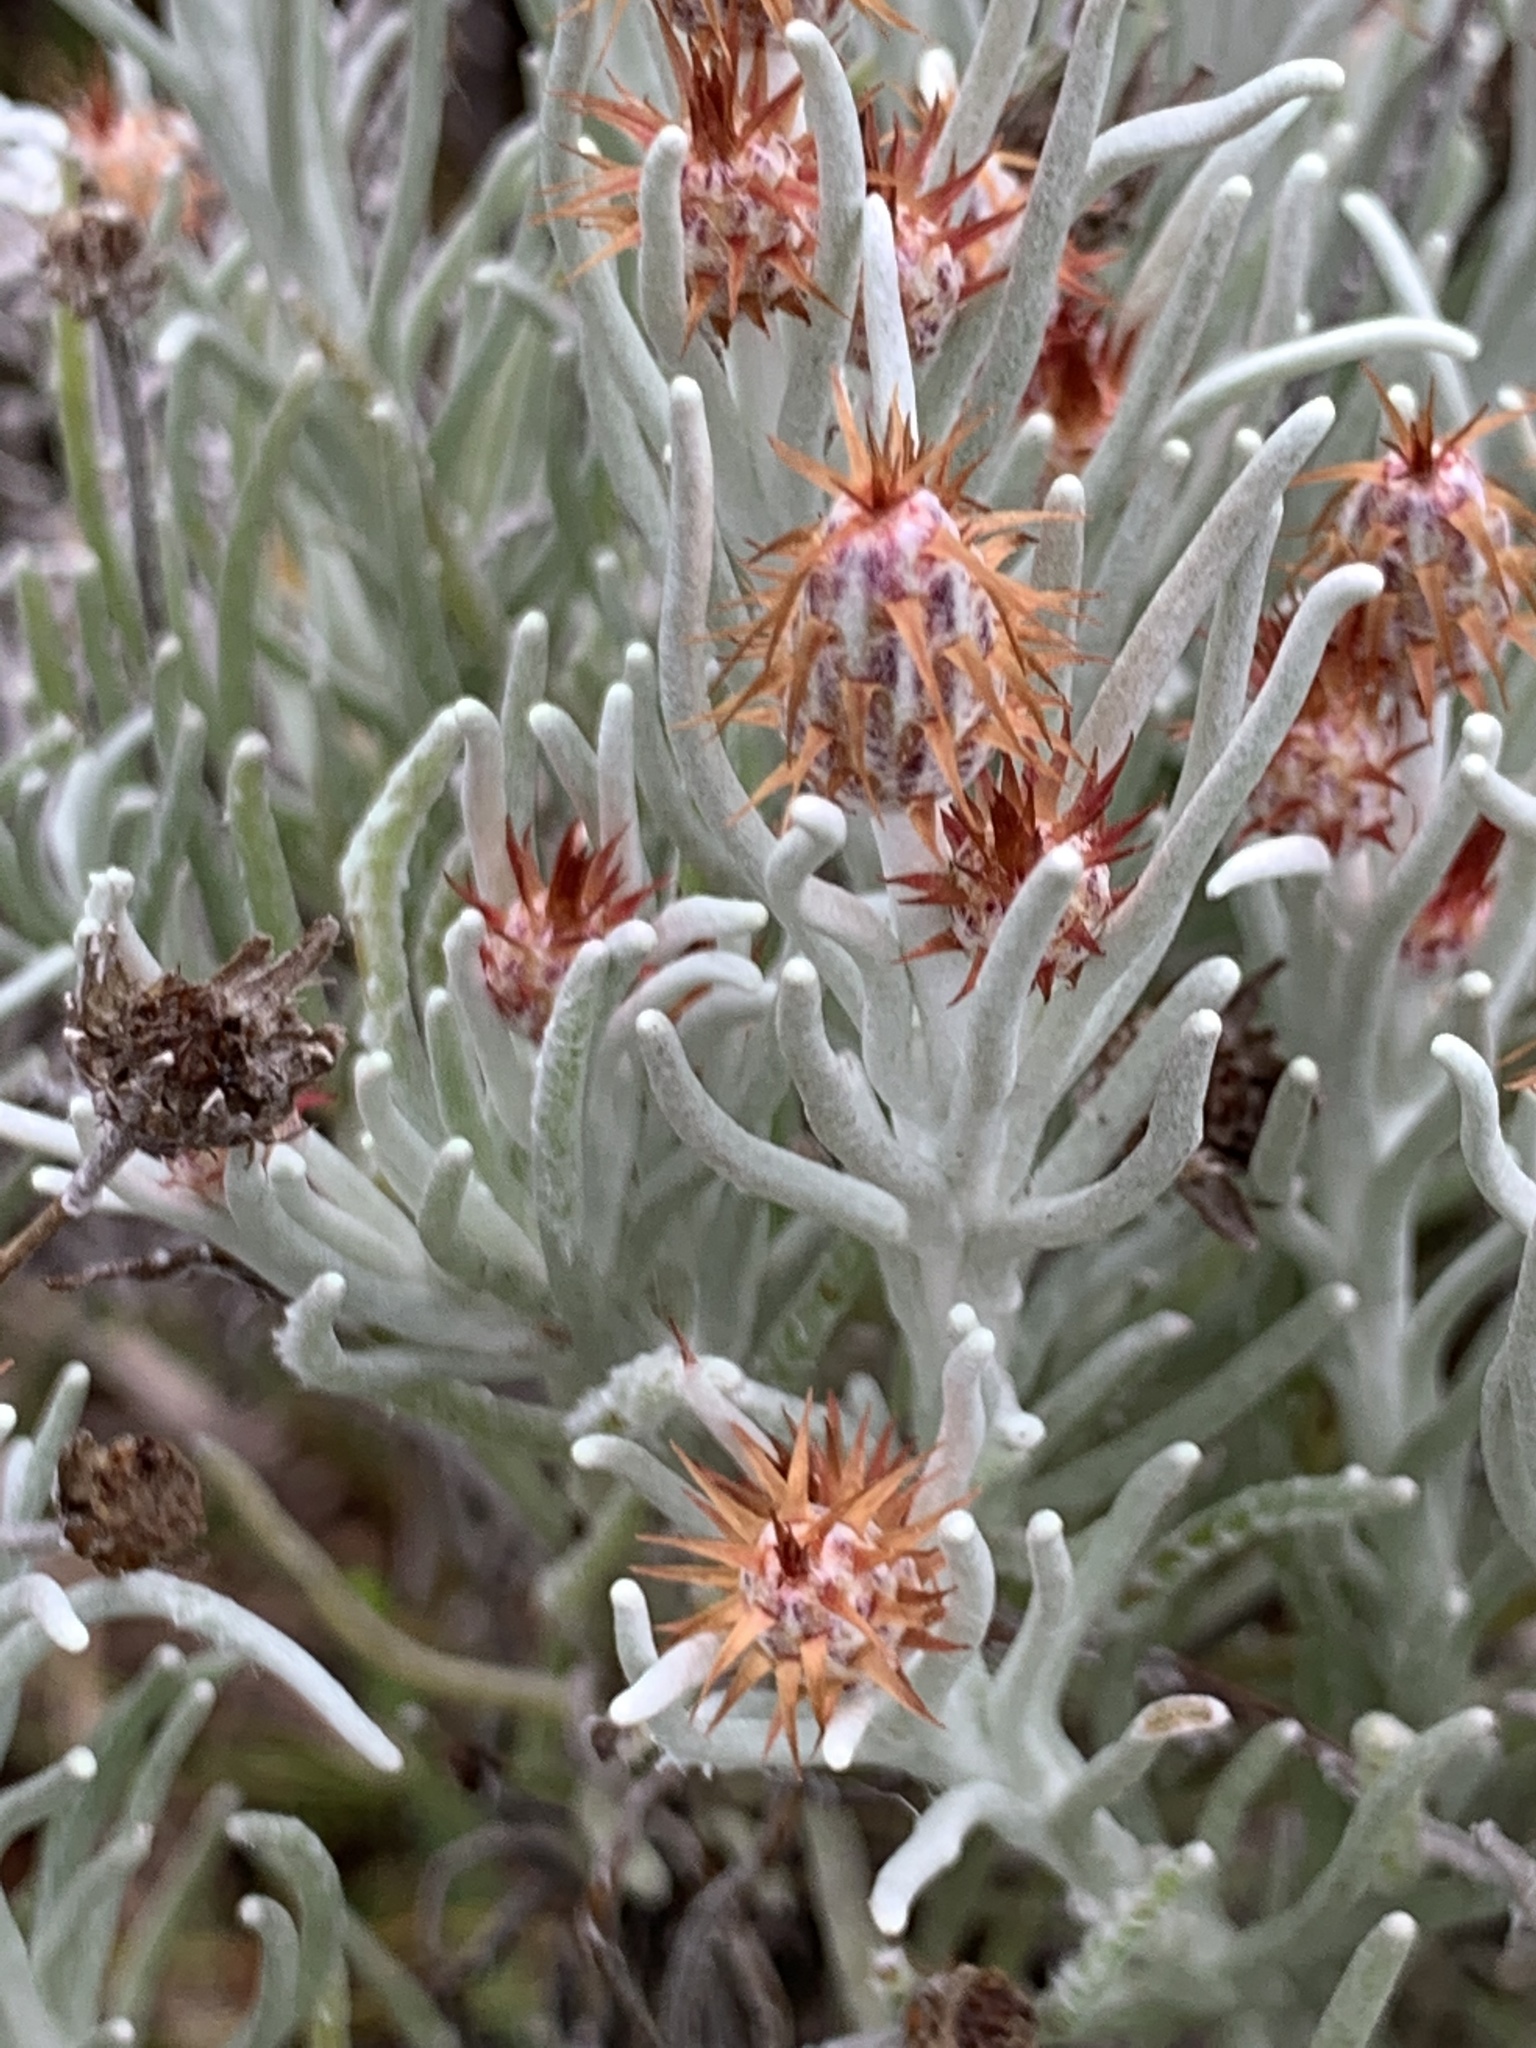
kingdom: Plantae
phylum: Tracheophyta
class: Magnoliopsida
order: Asterales
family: Asteraceae
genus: Syncarpha
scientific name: Syncarpha gnaphaloides
